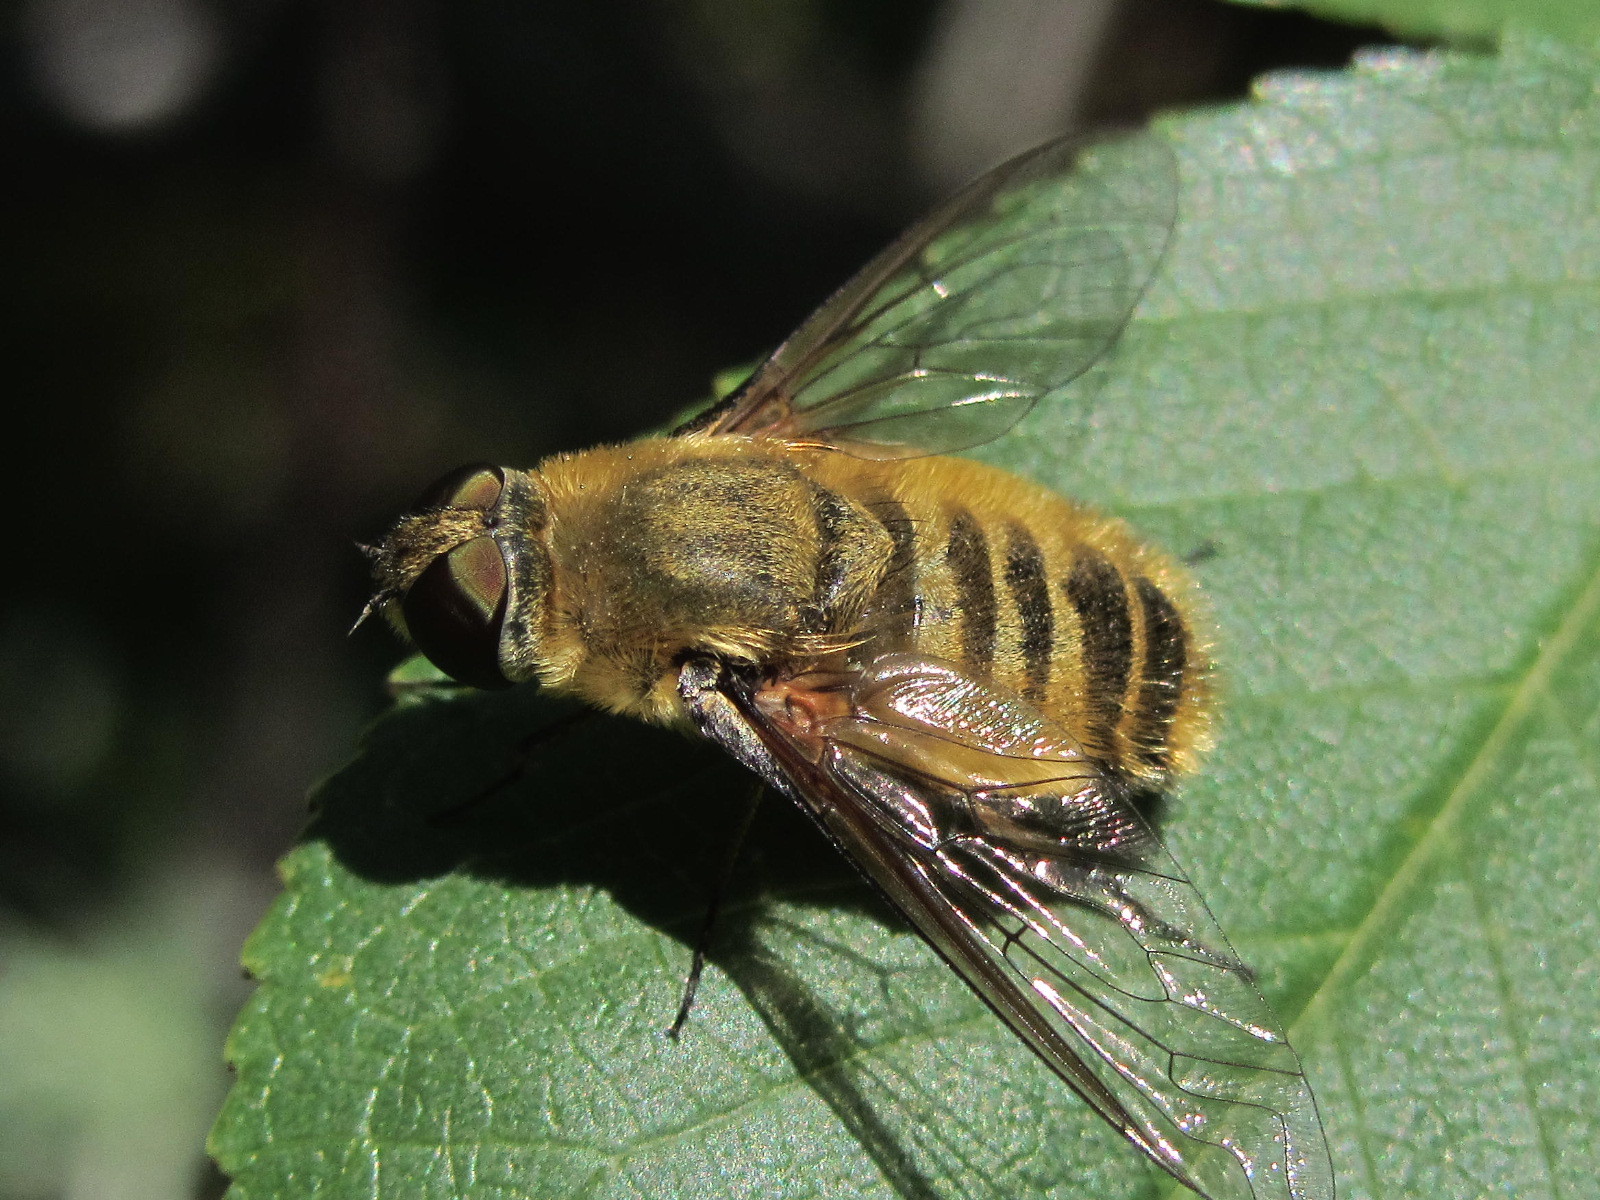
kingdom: Animalia
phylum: Arthropoda
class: Insecta
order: Diptera
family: Bombyliidae
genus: Villa
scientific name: Villa hottentotta
